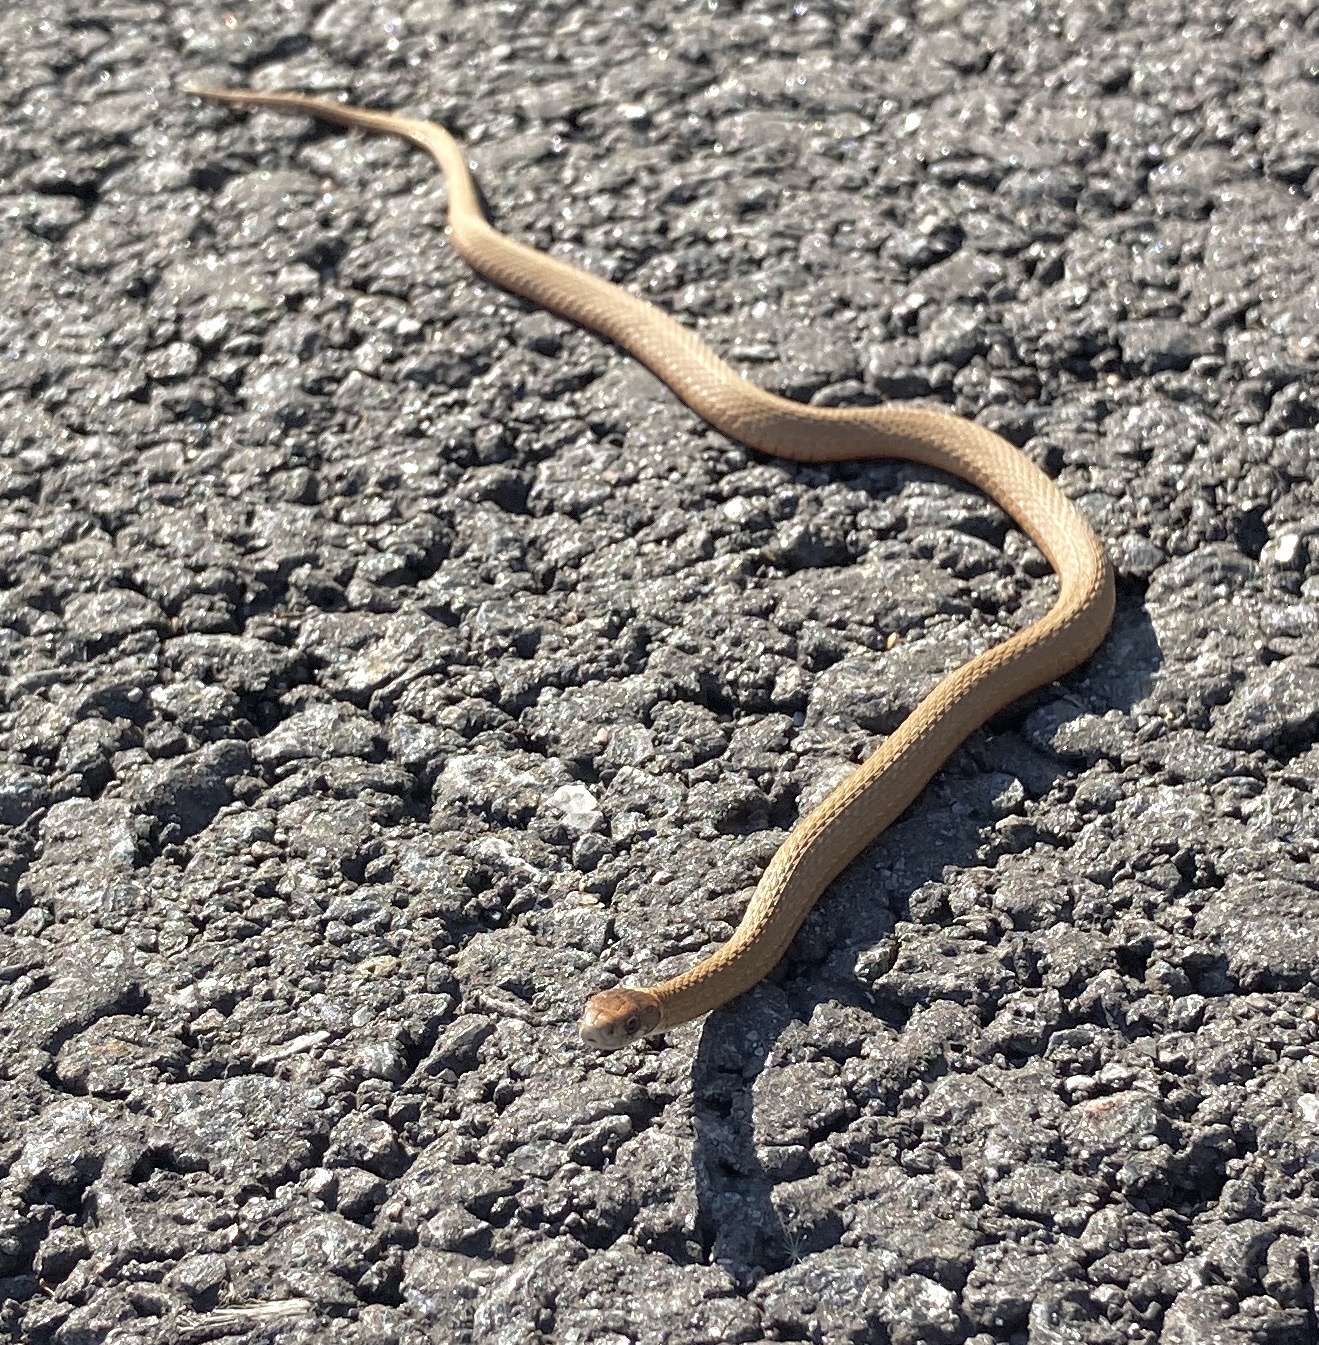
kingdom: Animalia
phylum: Chordata
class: Squamata
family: Colubridae
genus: Storeria
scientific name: Storeria occipitomaculata
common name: Redbelly snake
